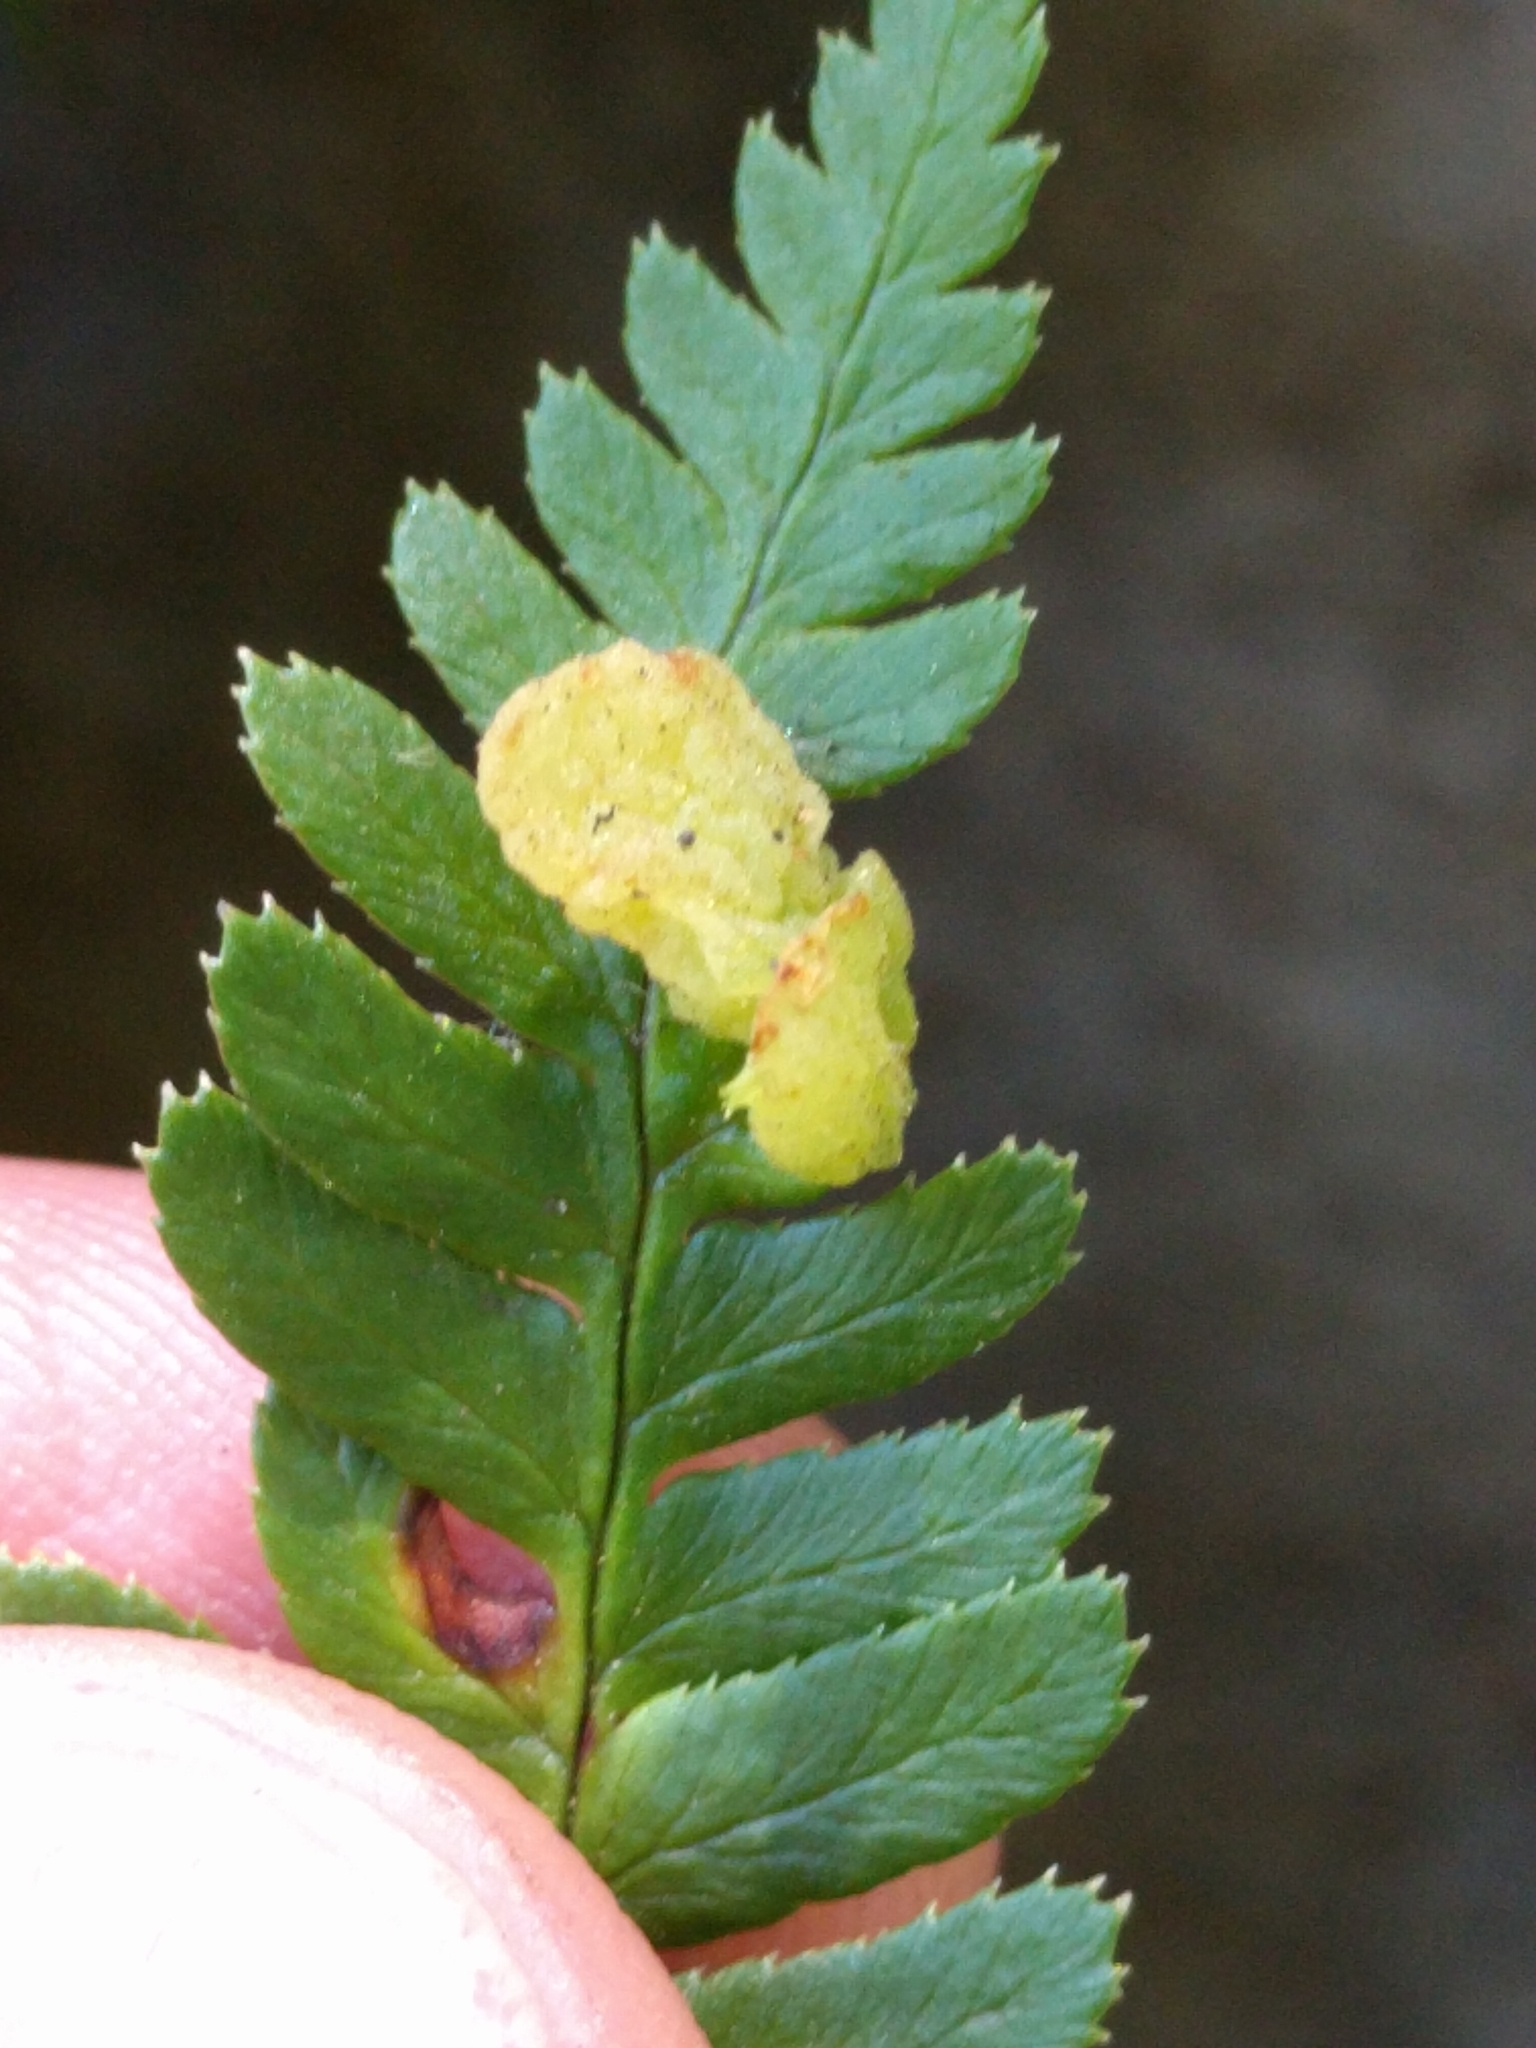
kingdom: Fungi
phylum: Ascomycota
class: Taphrinomycetes
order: Taphrinales
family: Taphrinaceae
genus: Taphrina
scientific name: Taphrina californica
